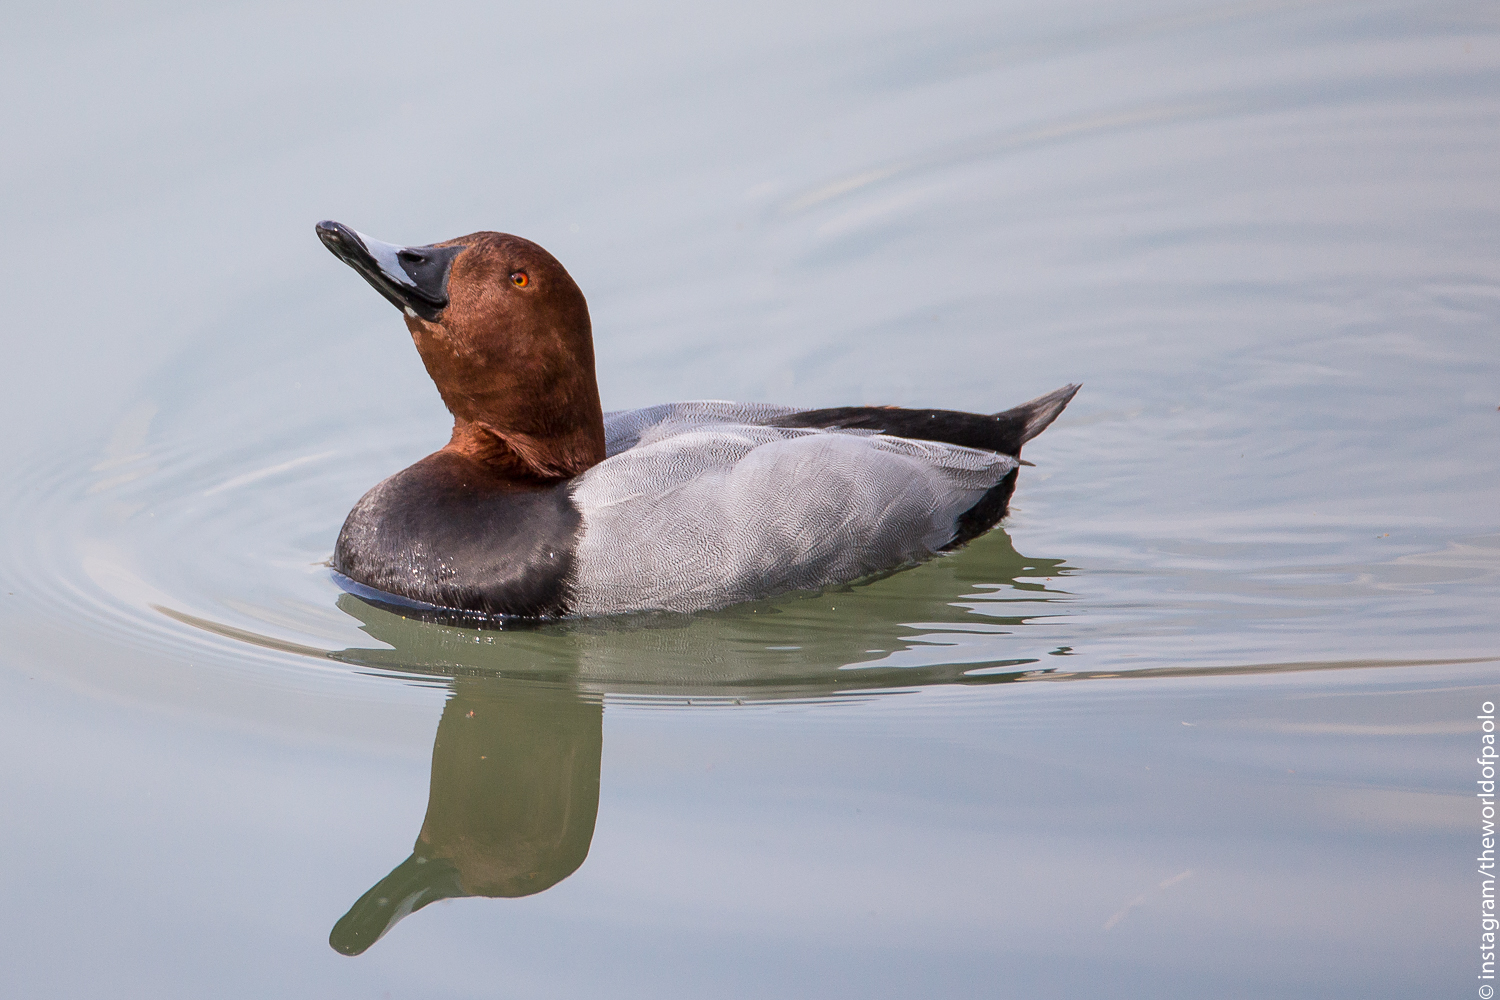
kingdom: Animalia
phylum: Chordata
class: Aves
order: Anseriformes
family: Anatidae
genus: Aythya
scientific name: Aythya ferina
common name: Common pochard
